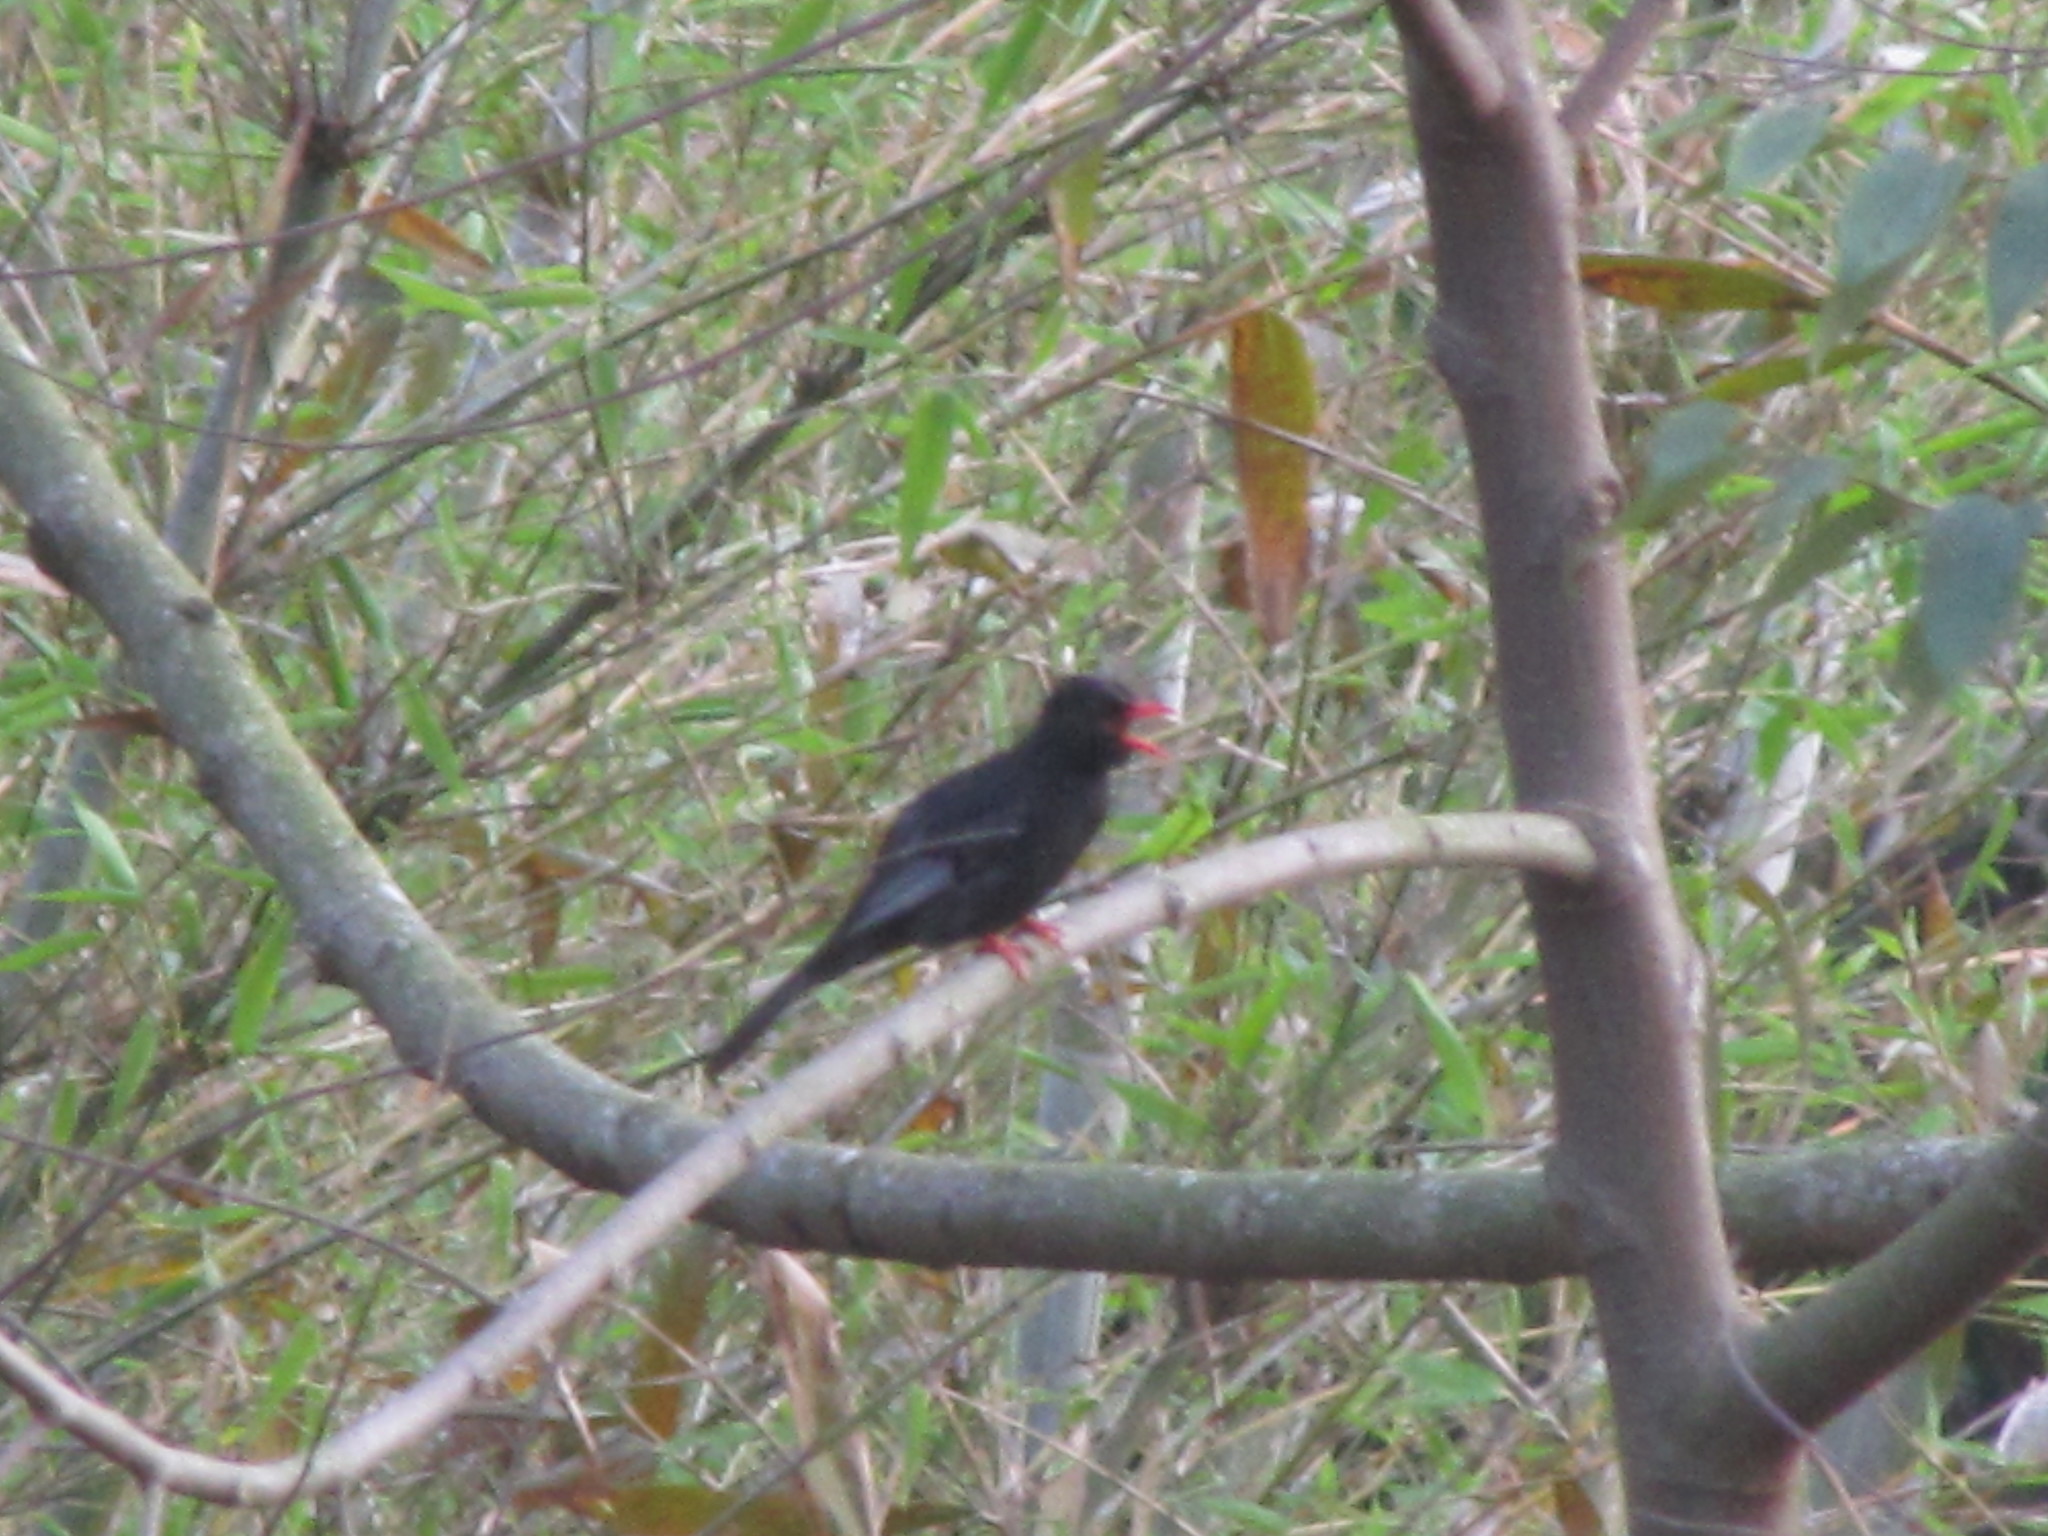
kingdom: Animalia
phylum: Chordata
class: Aves
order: Passeriformes
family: Pycnonotidae
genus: Hypsipetes
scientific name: Hypsipetes leucocephalus
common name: Black bulbul
